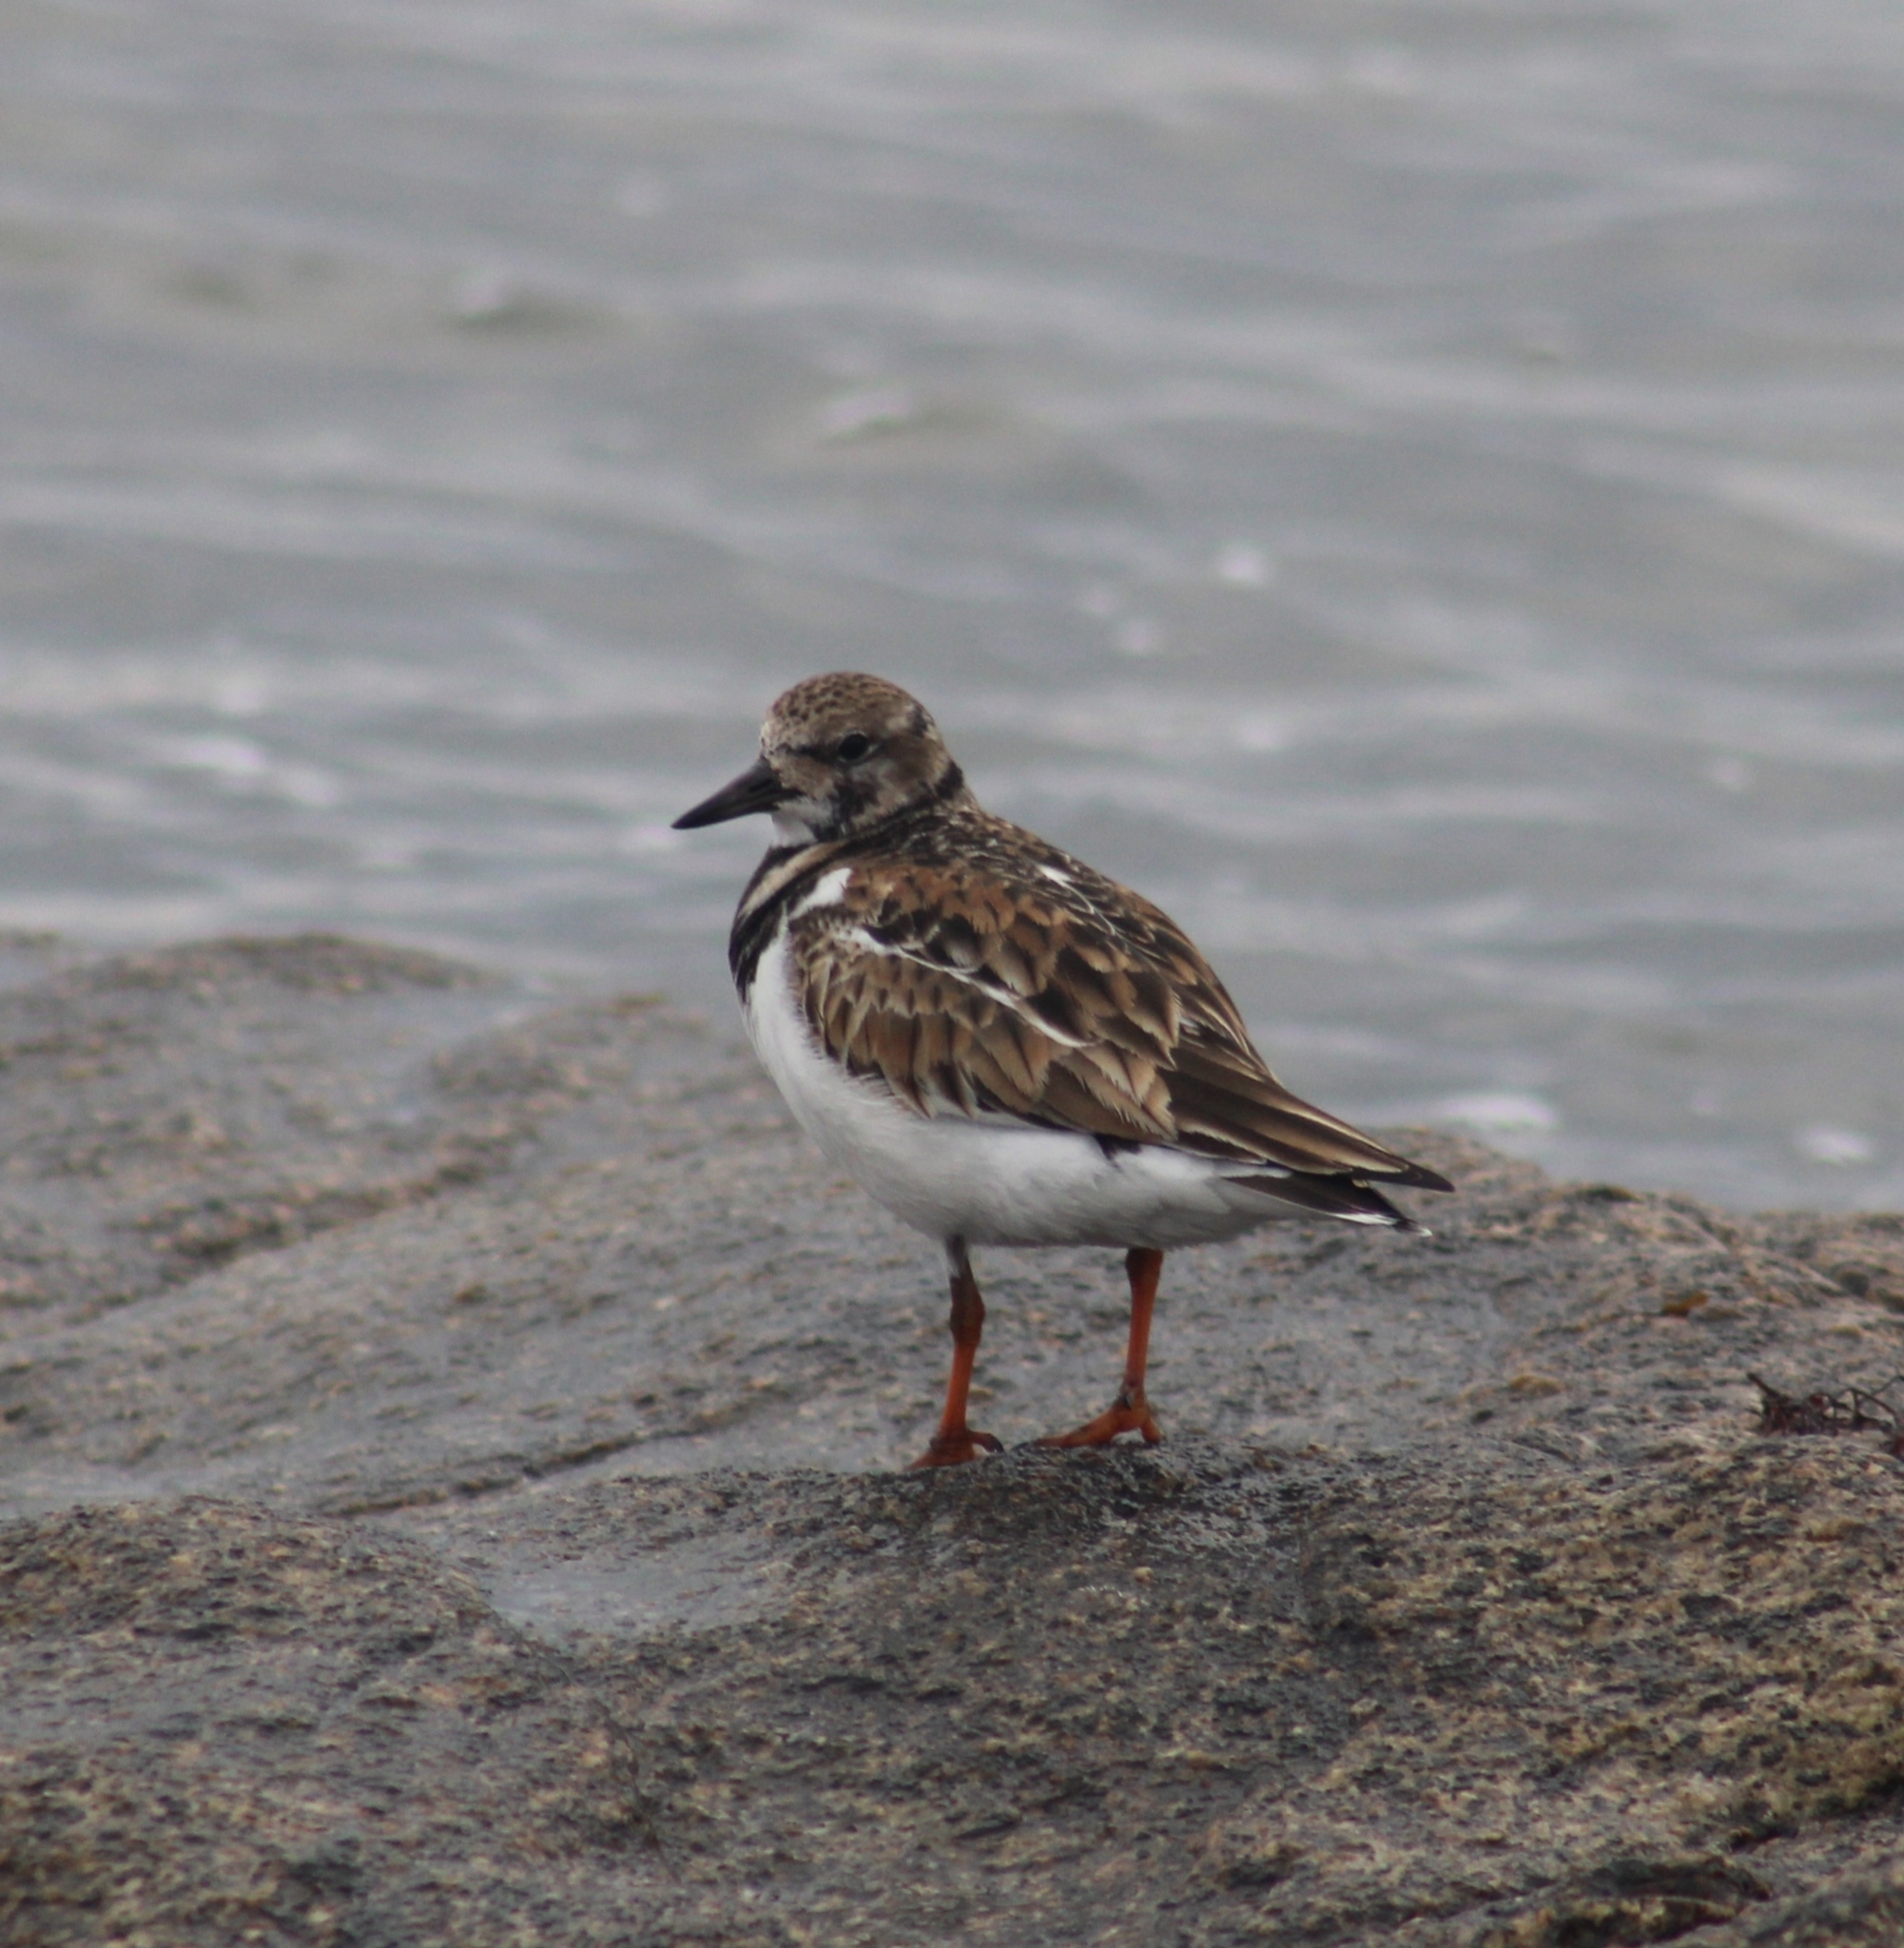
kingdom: Animalia
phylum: Chordata
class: Aves
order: Charadriiformes
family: Scolopacidae
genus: Arenaria
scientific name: Arenaria interpres
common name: Ruddy turnstone
